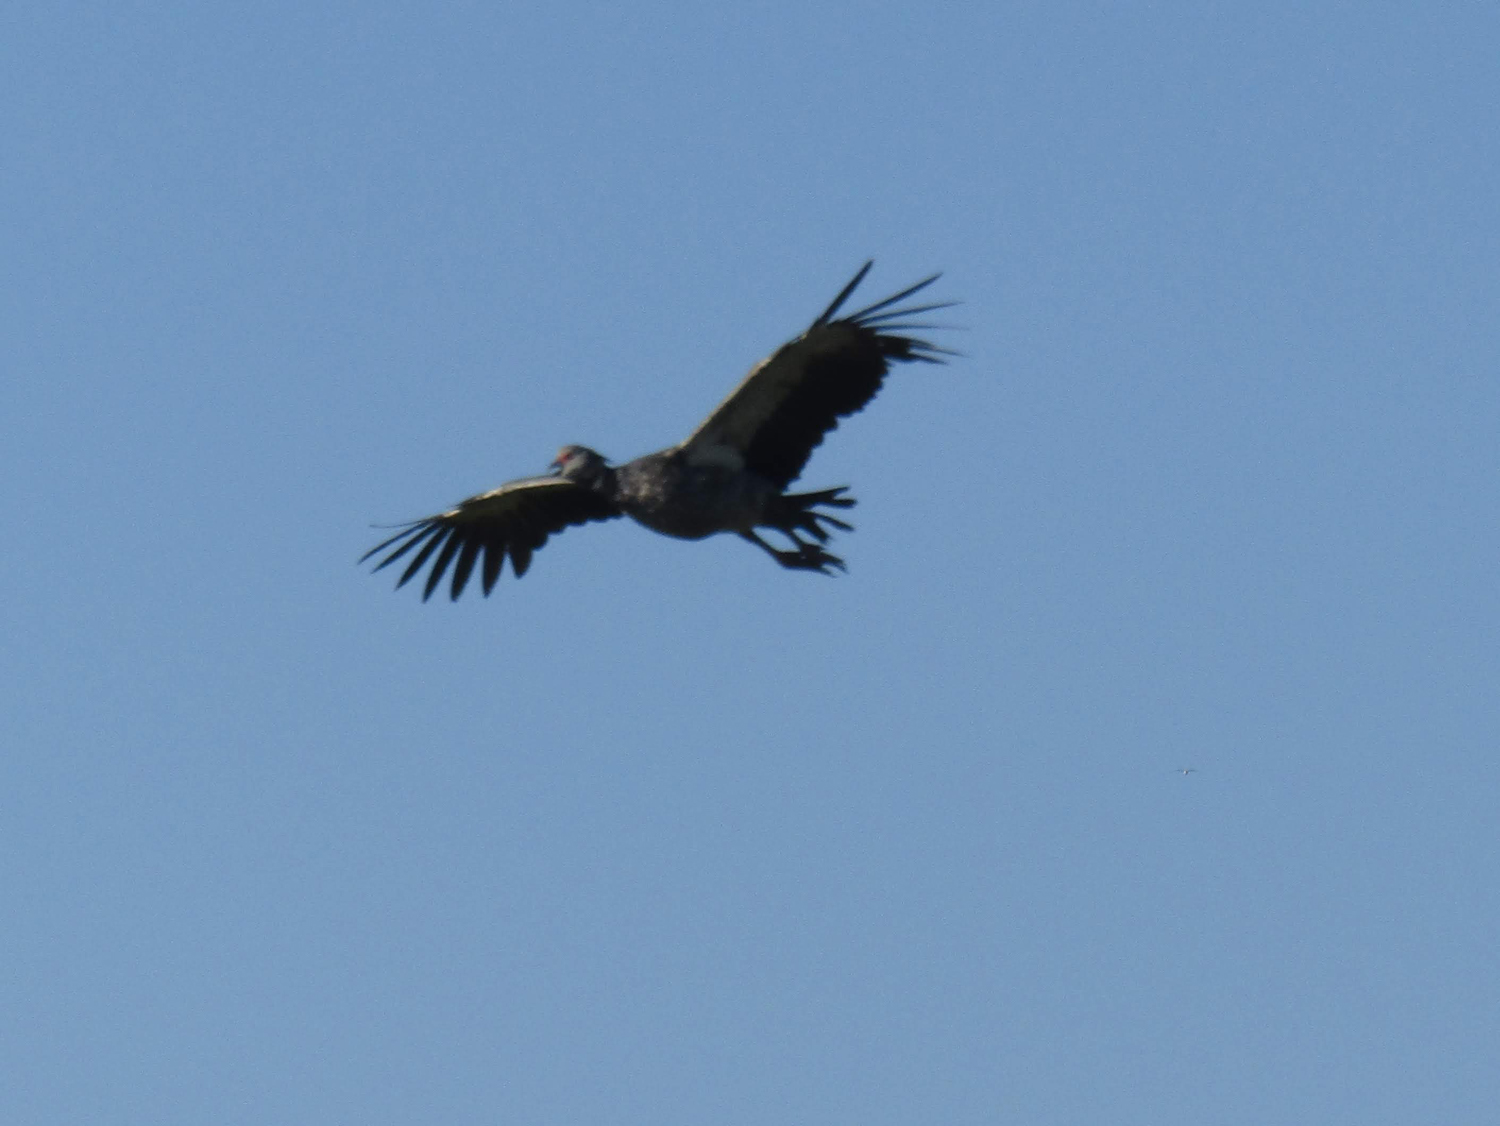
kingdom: Animalia
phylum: Chordata
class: Aves
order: Anseriformes
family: Anhimidae
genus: Chauna
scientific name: Chauna torquata
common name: Southern screamer
